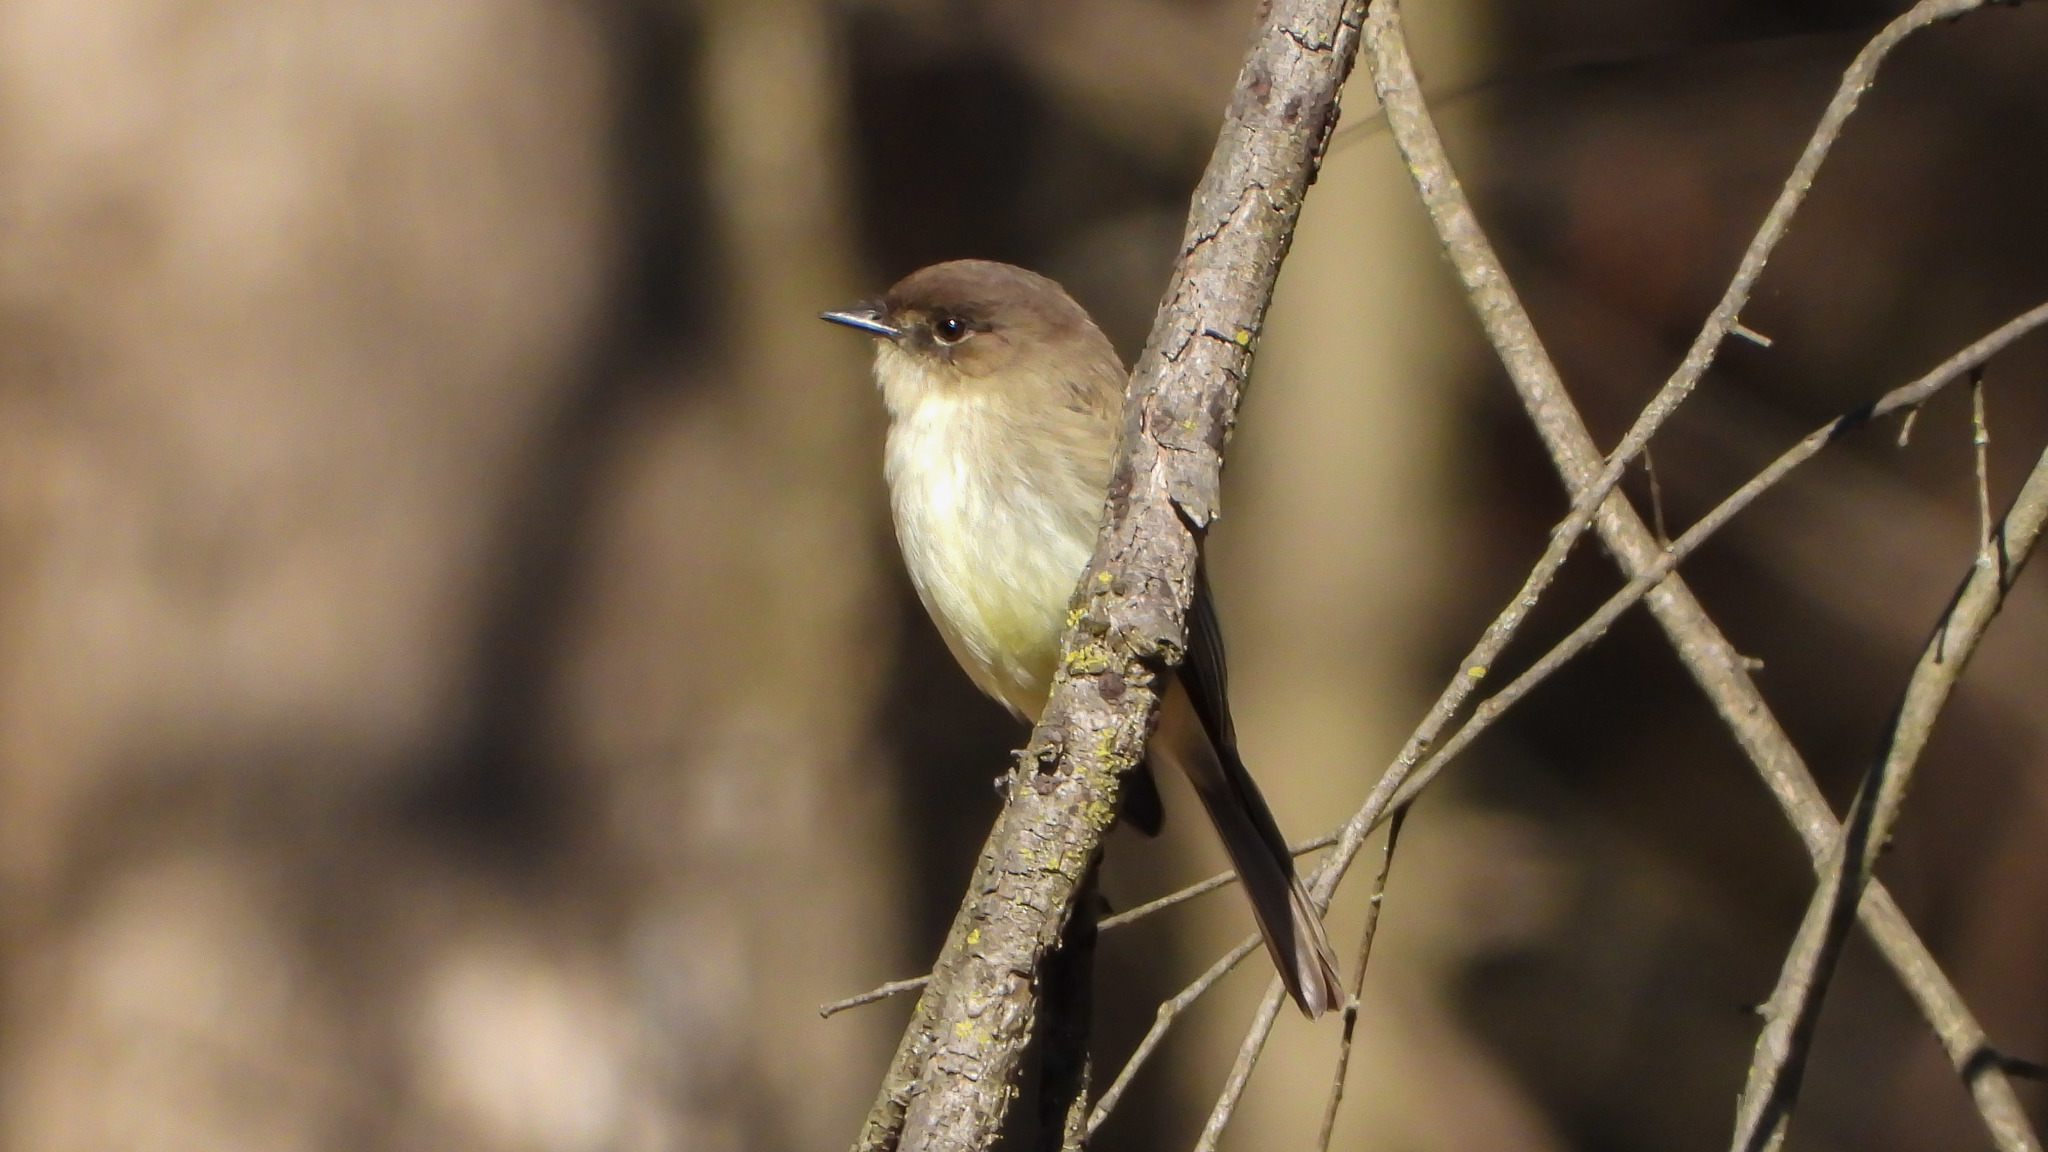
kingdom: Animalia
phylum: Chordata
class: Aves
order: Passeriformes
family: Tyrannidae
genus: Sayornis
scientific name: Sayornis phoebe
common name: Eastern phoebe
